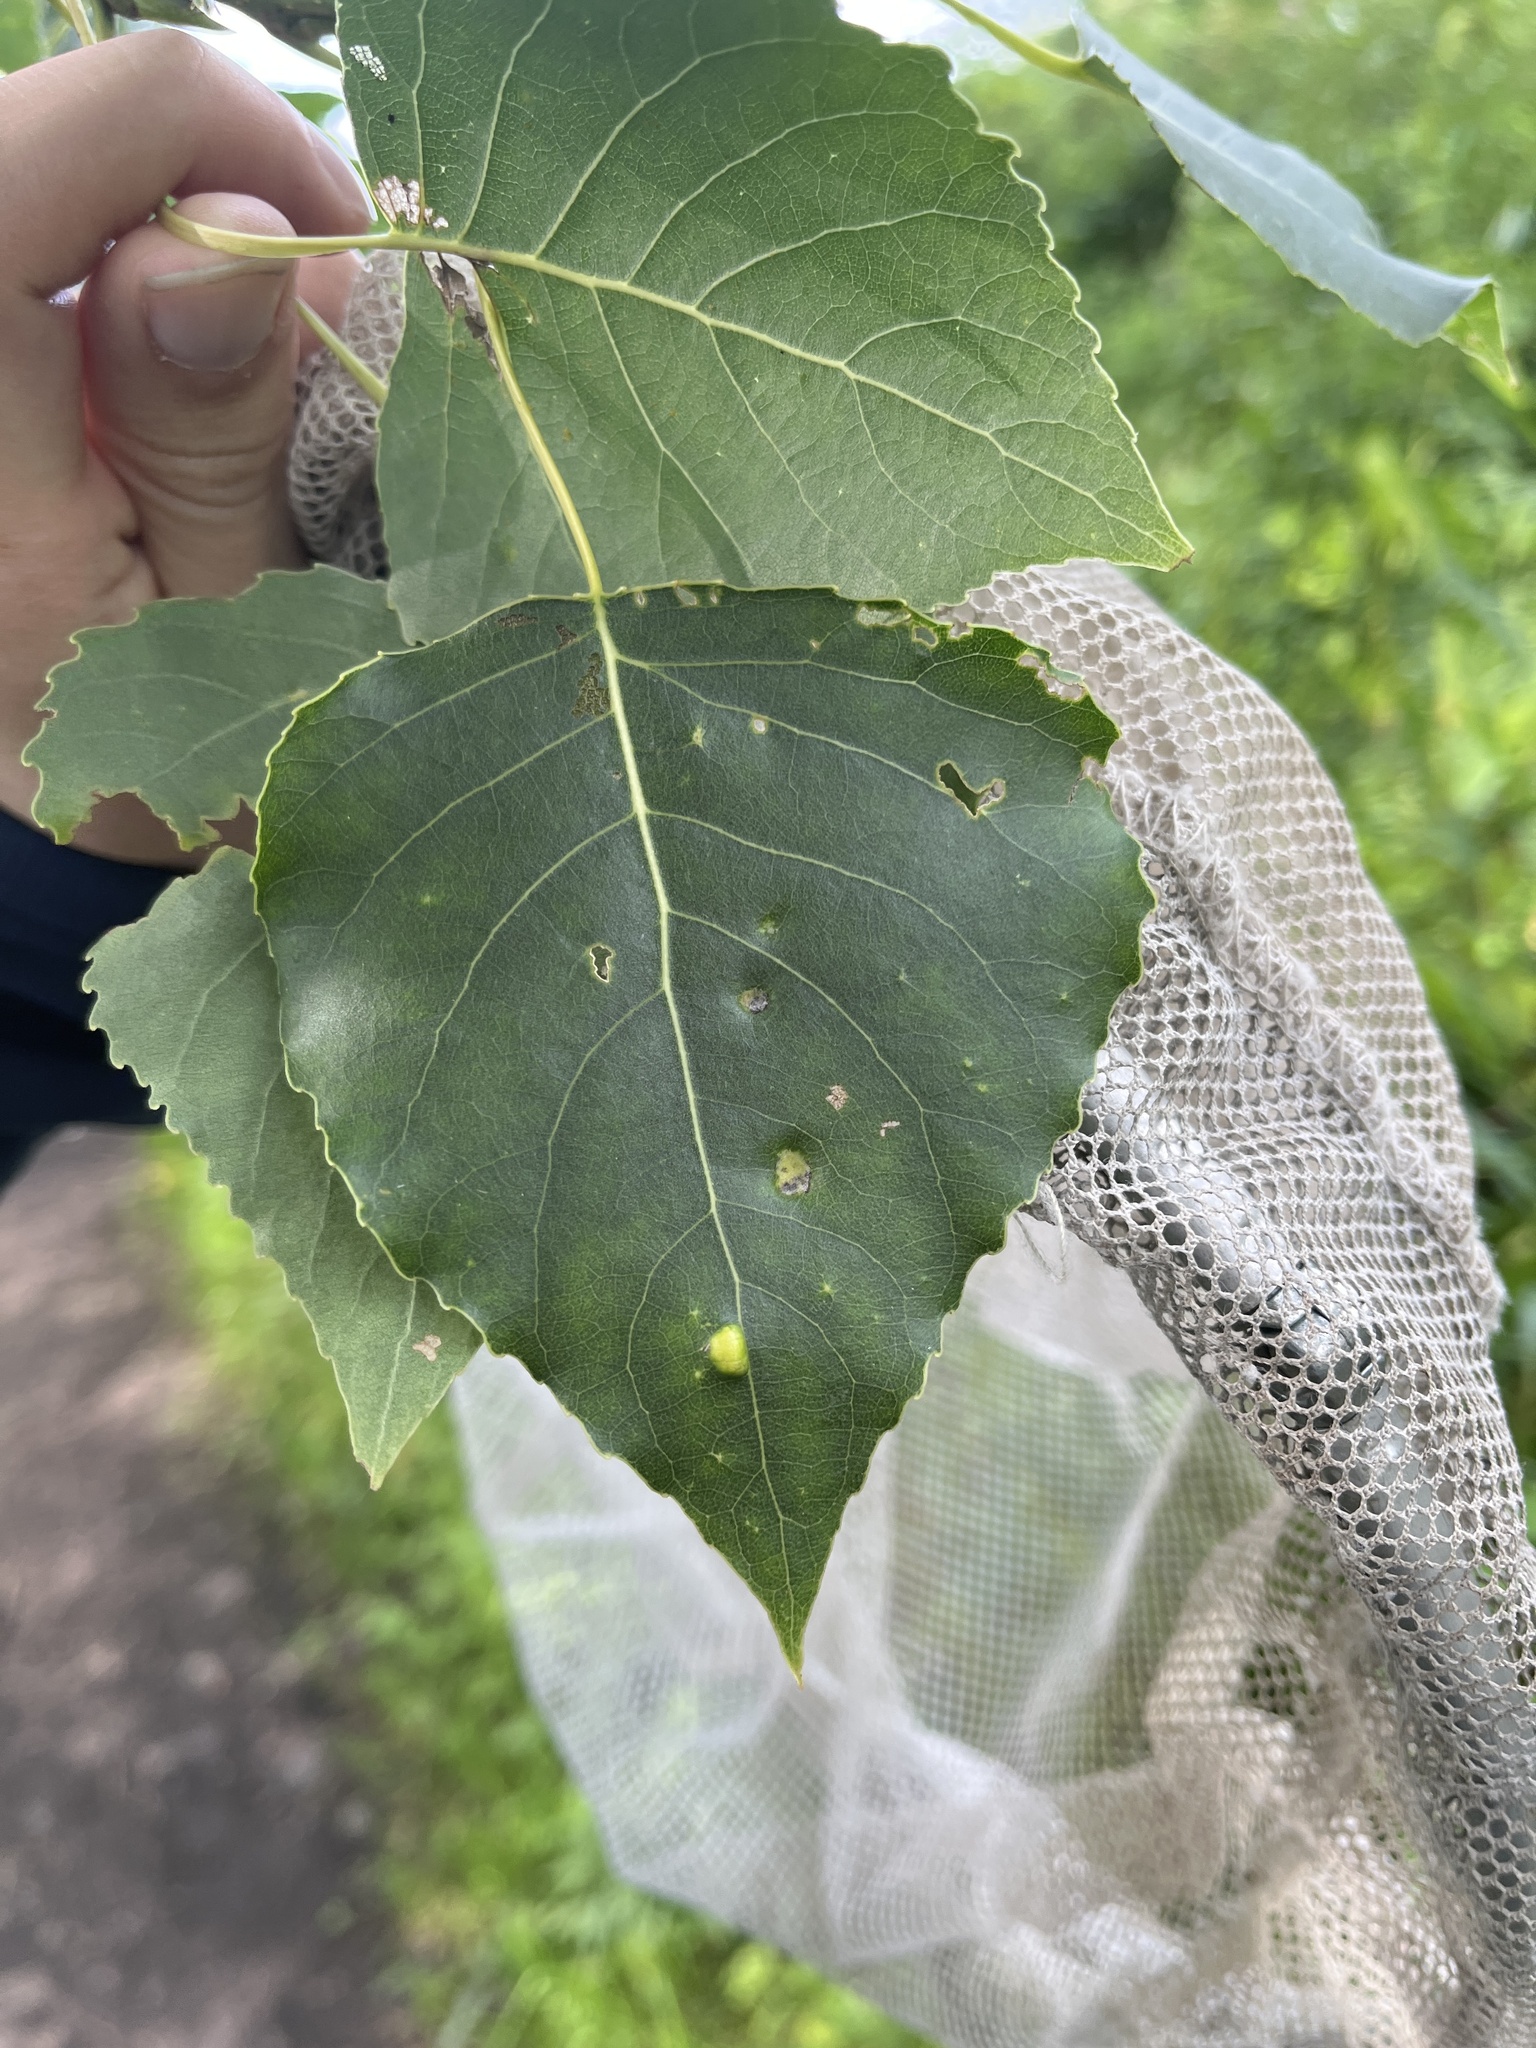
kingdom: Fungi
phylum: Ascomycota
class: Taphrinomycetes
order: Taphrinales
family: Taphrinaceae
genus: Taphrina
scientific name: Taphrina populina
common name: Poplar leaf curl
